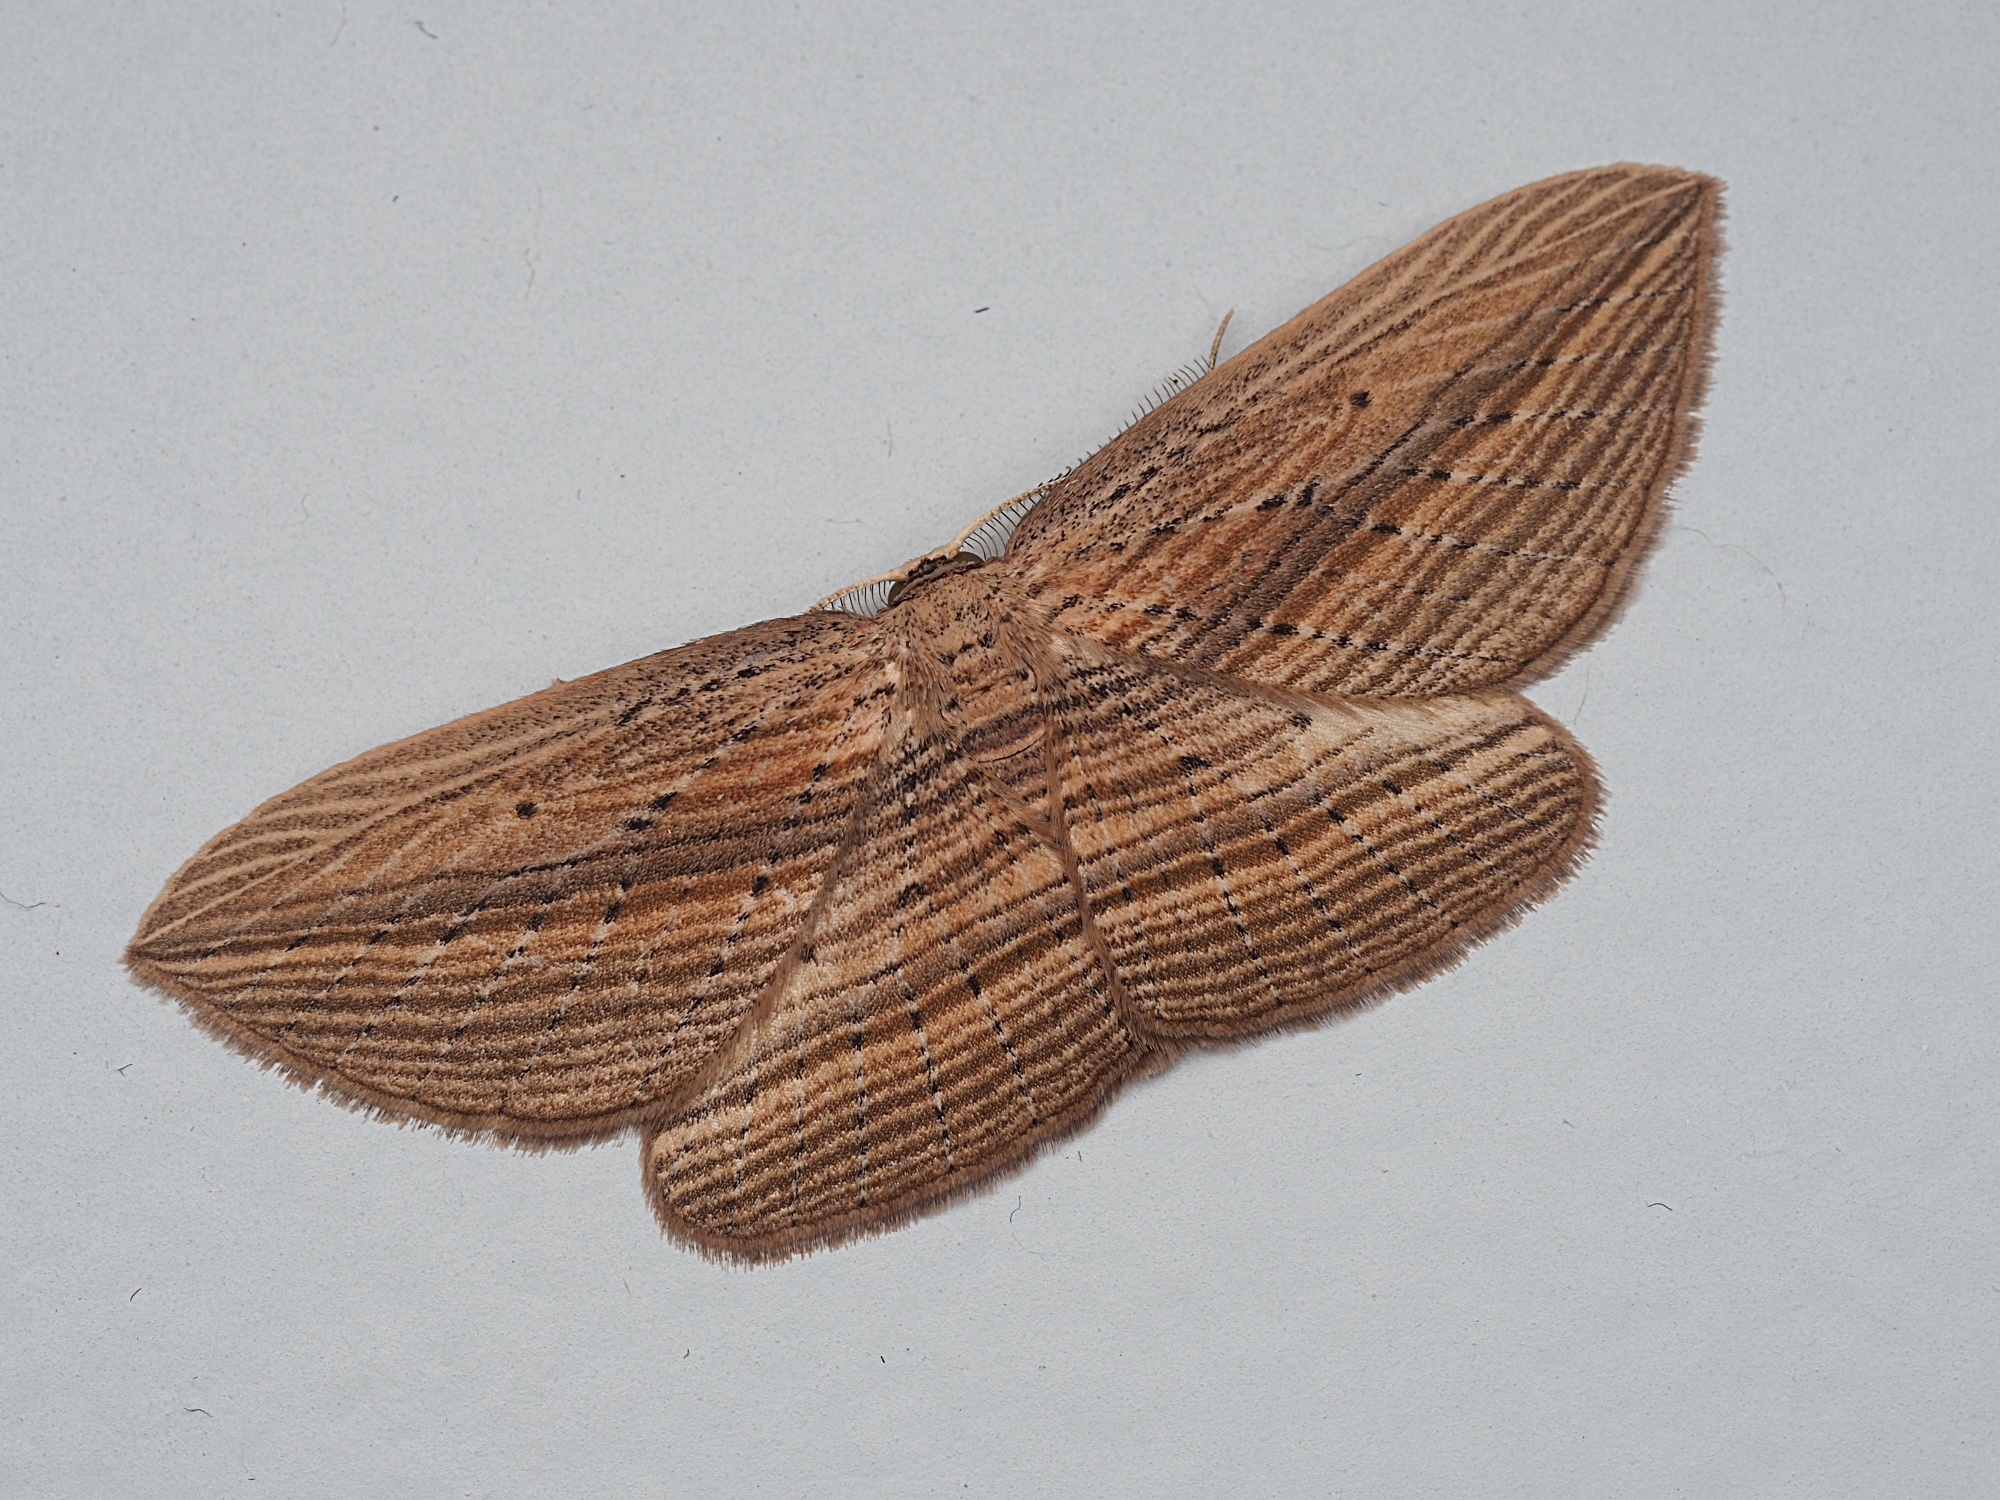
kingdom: Animalia
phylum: Arthropoda
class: Insecta
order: Lepidoptera
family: Geometridae
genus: Epiphryne
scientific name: Epiphryne verriculata
